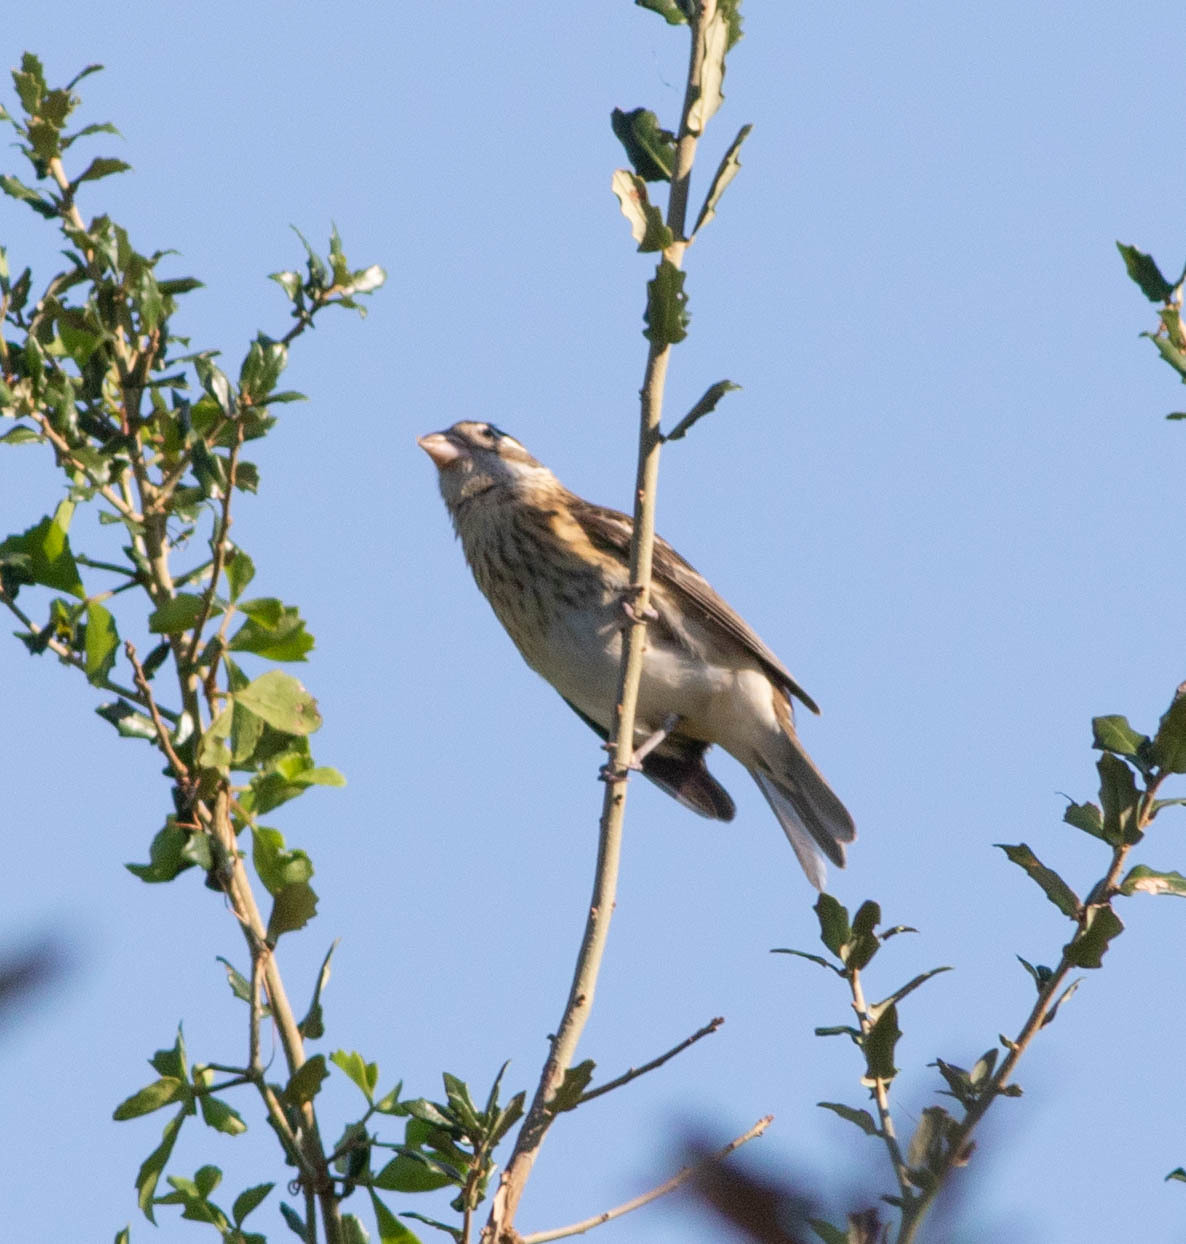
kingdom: Animalia
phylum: Chordata
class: Aves
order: Passeriformes
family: Cardinalidae
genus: Pheucticus
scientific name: Pheucticus ludovicianus
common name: Rose-breasted grosbeak
